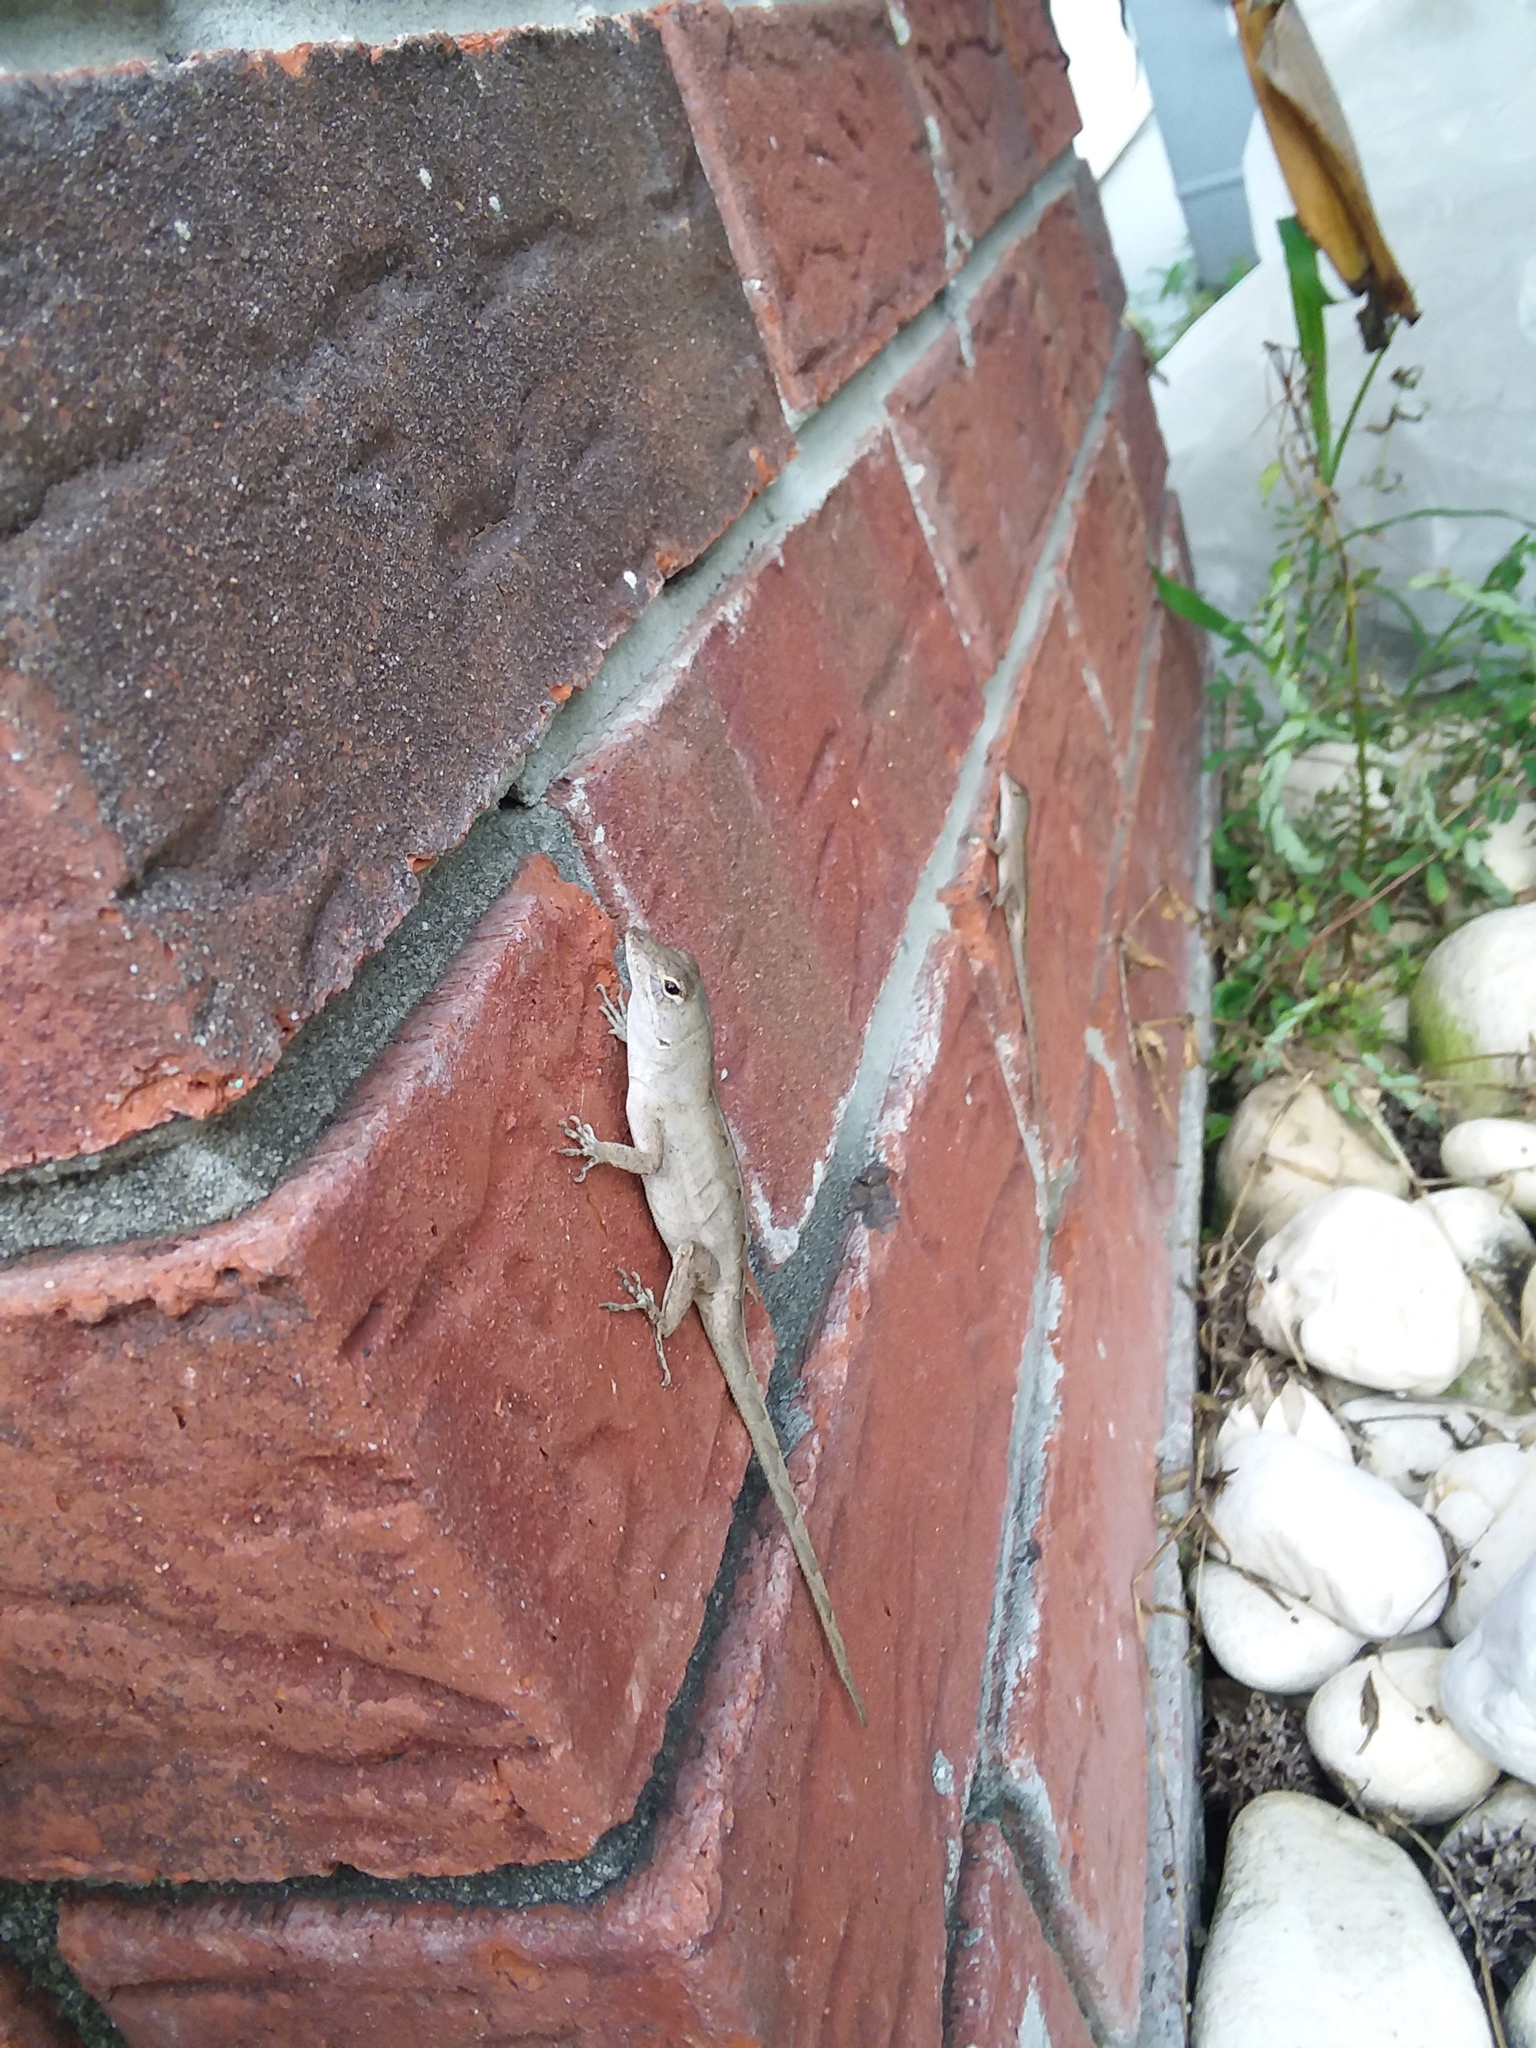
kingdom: Animalia
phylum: Chordata
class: Squamata
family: Dactyloidae
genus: Anolis
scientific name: Anolis sagrei
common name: Brown anole
